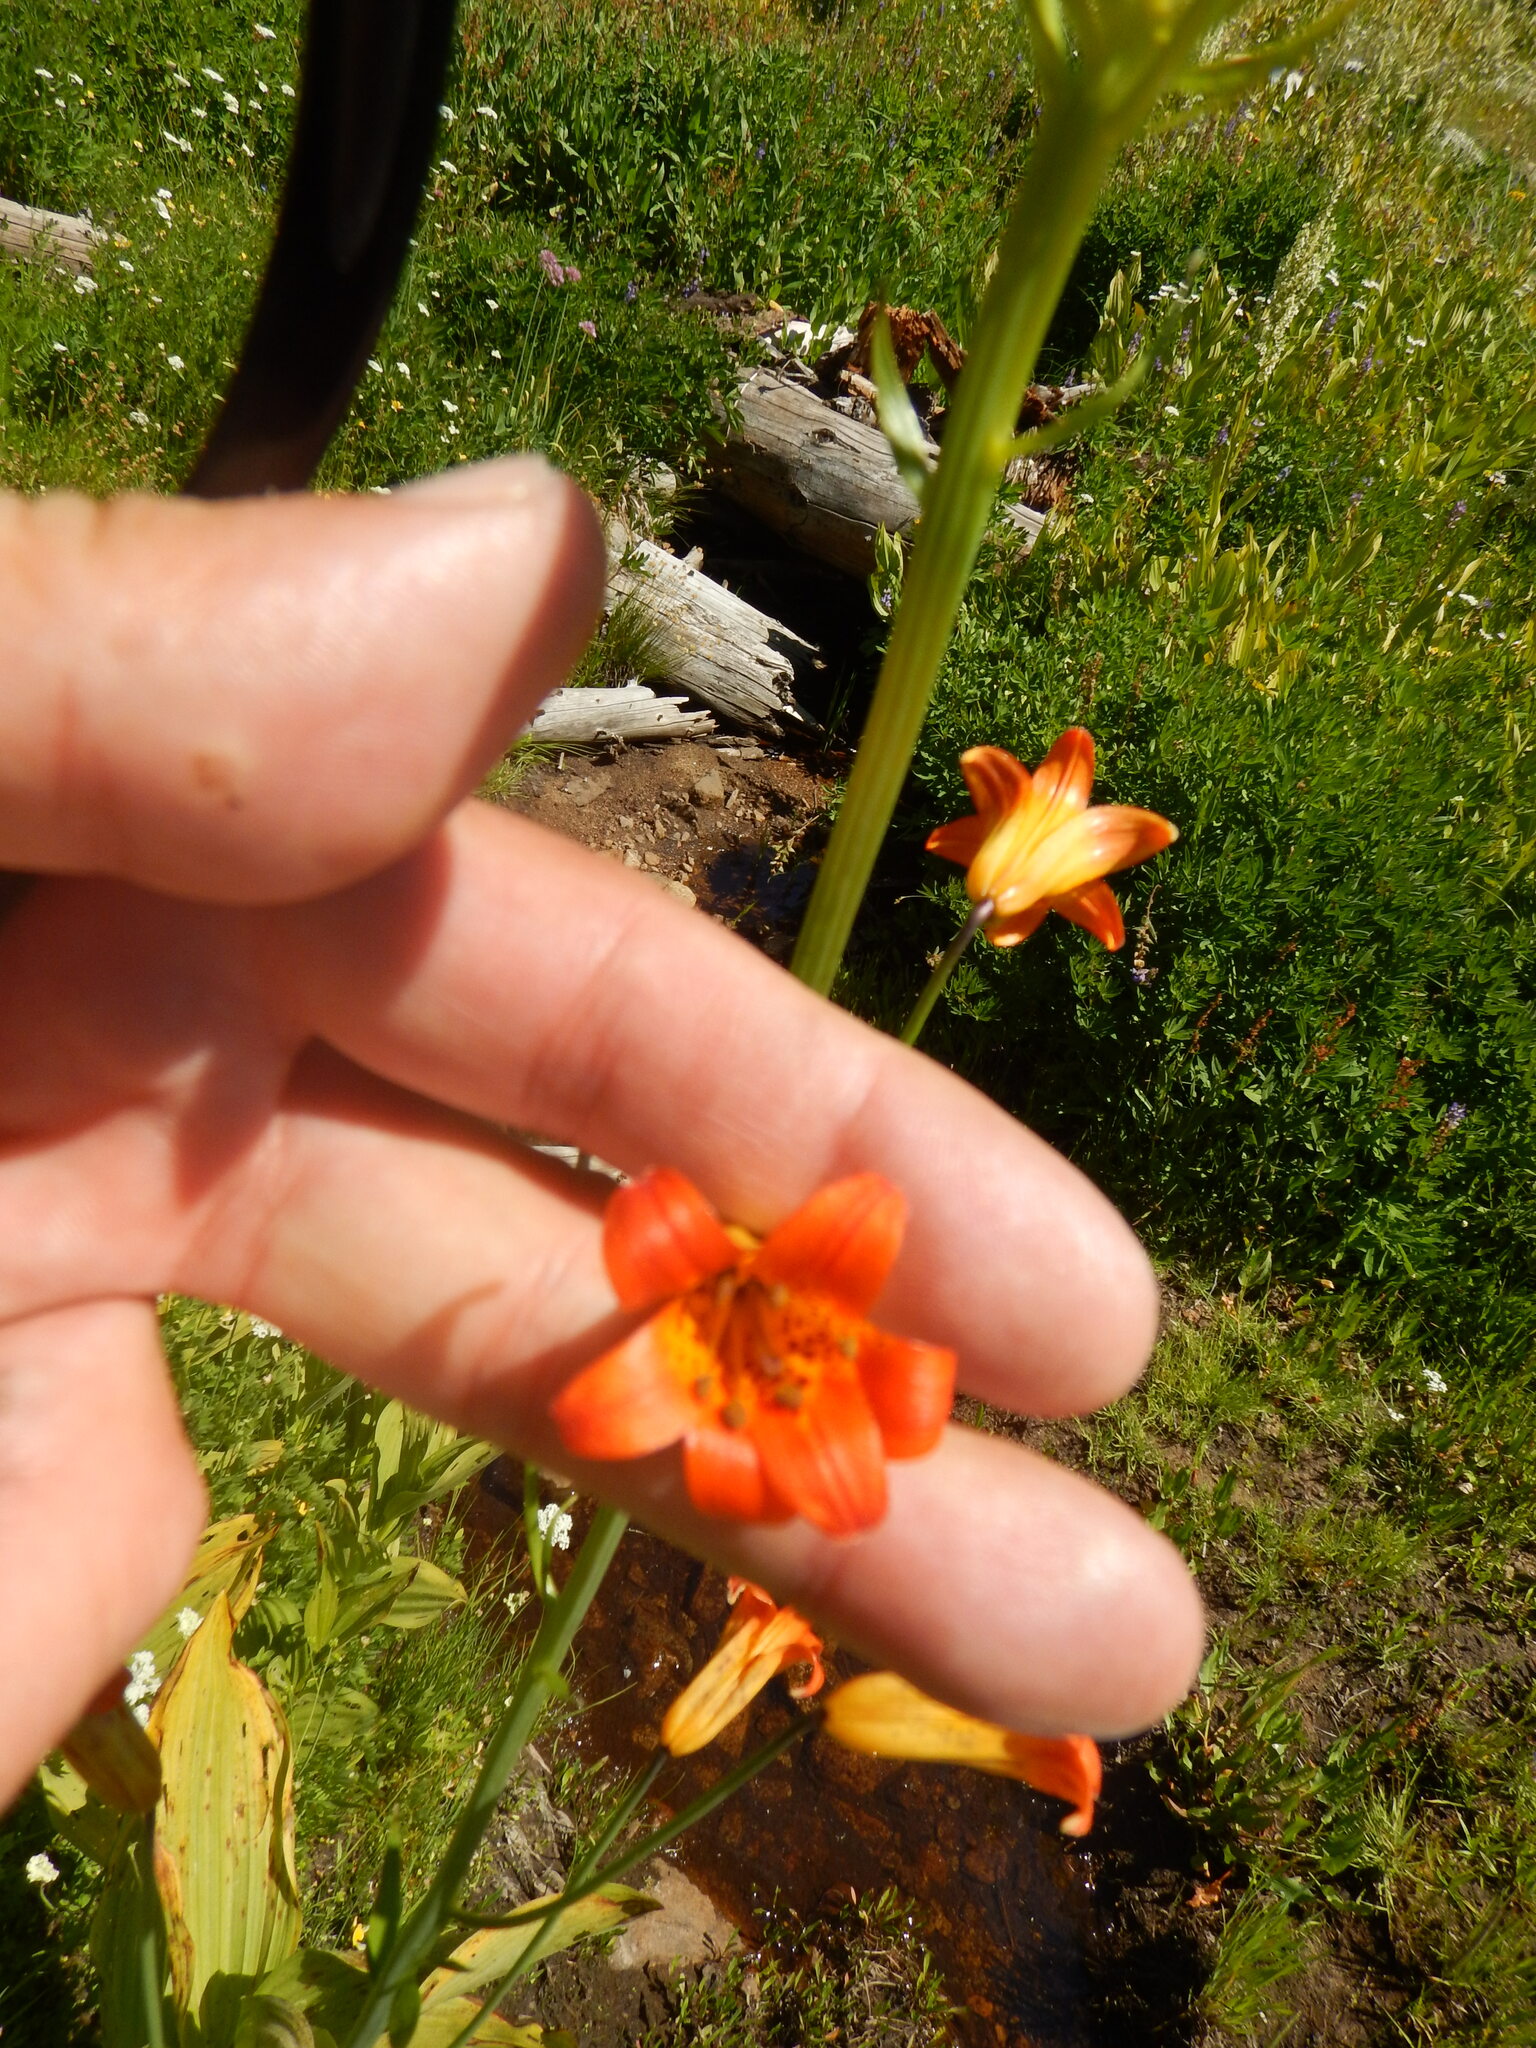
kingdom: Plantae
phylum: Tracheophyta
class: Liliopsida
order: Liliales
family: Liliaceae
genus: Lilium
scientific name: Lilium parvum
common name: Alpine lily
